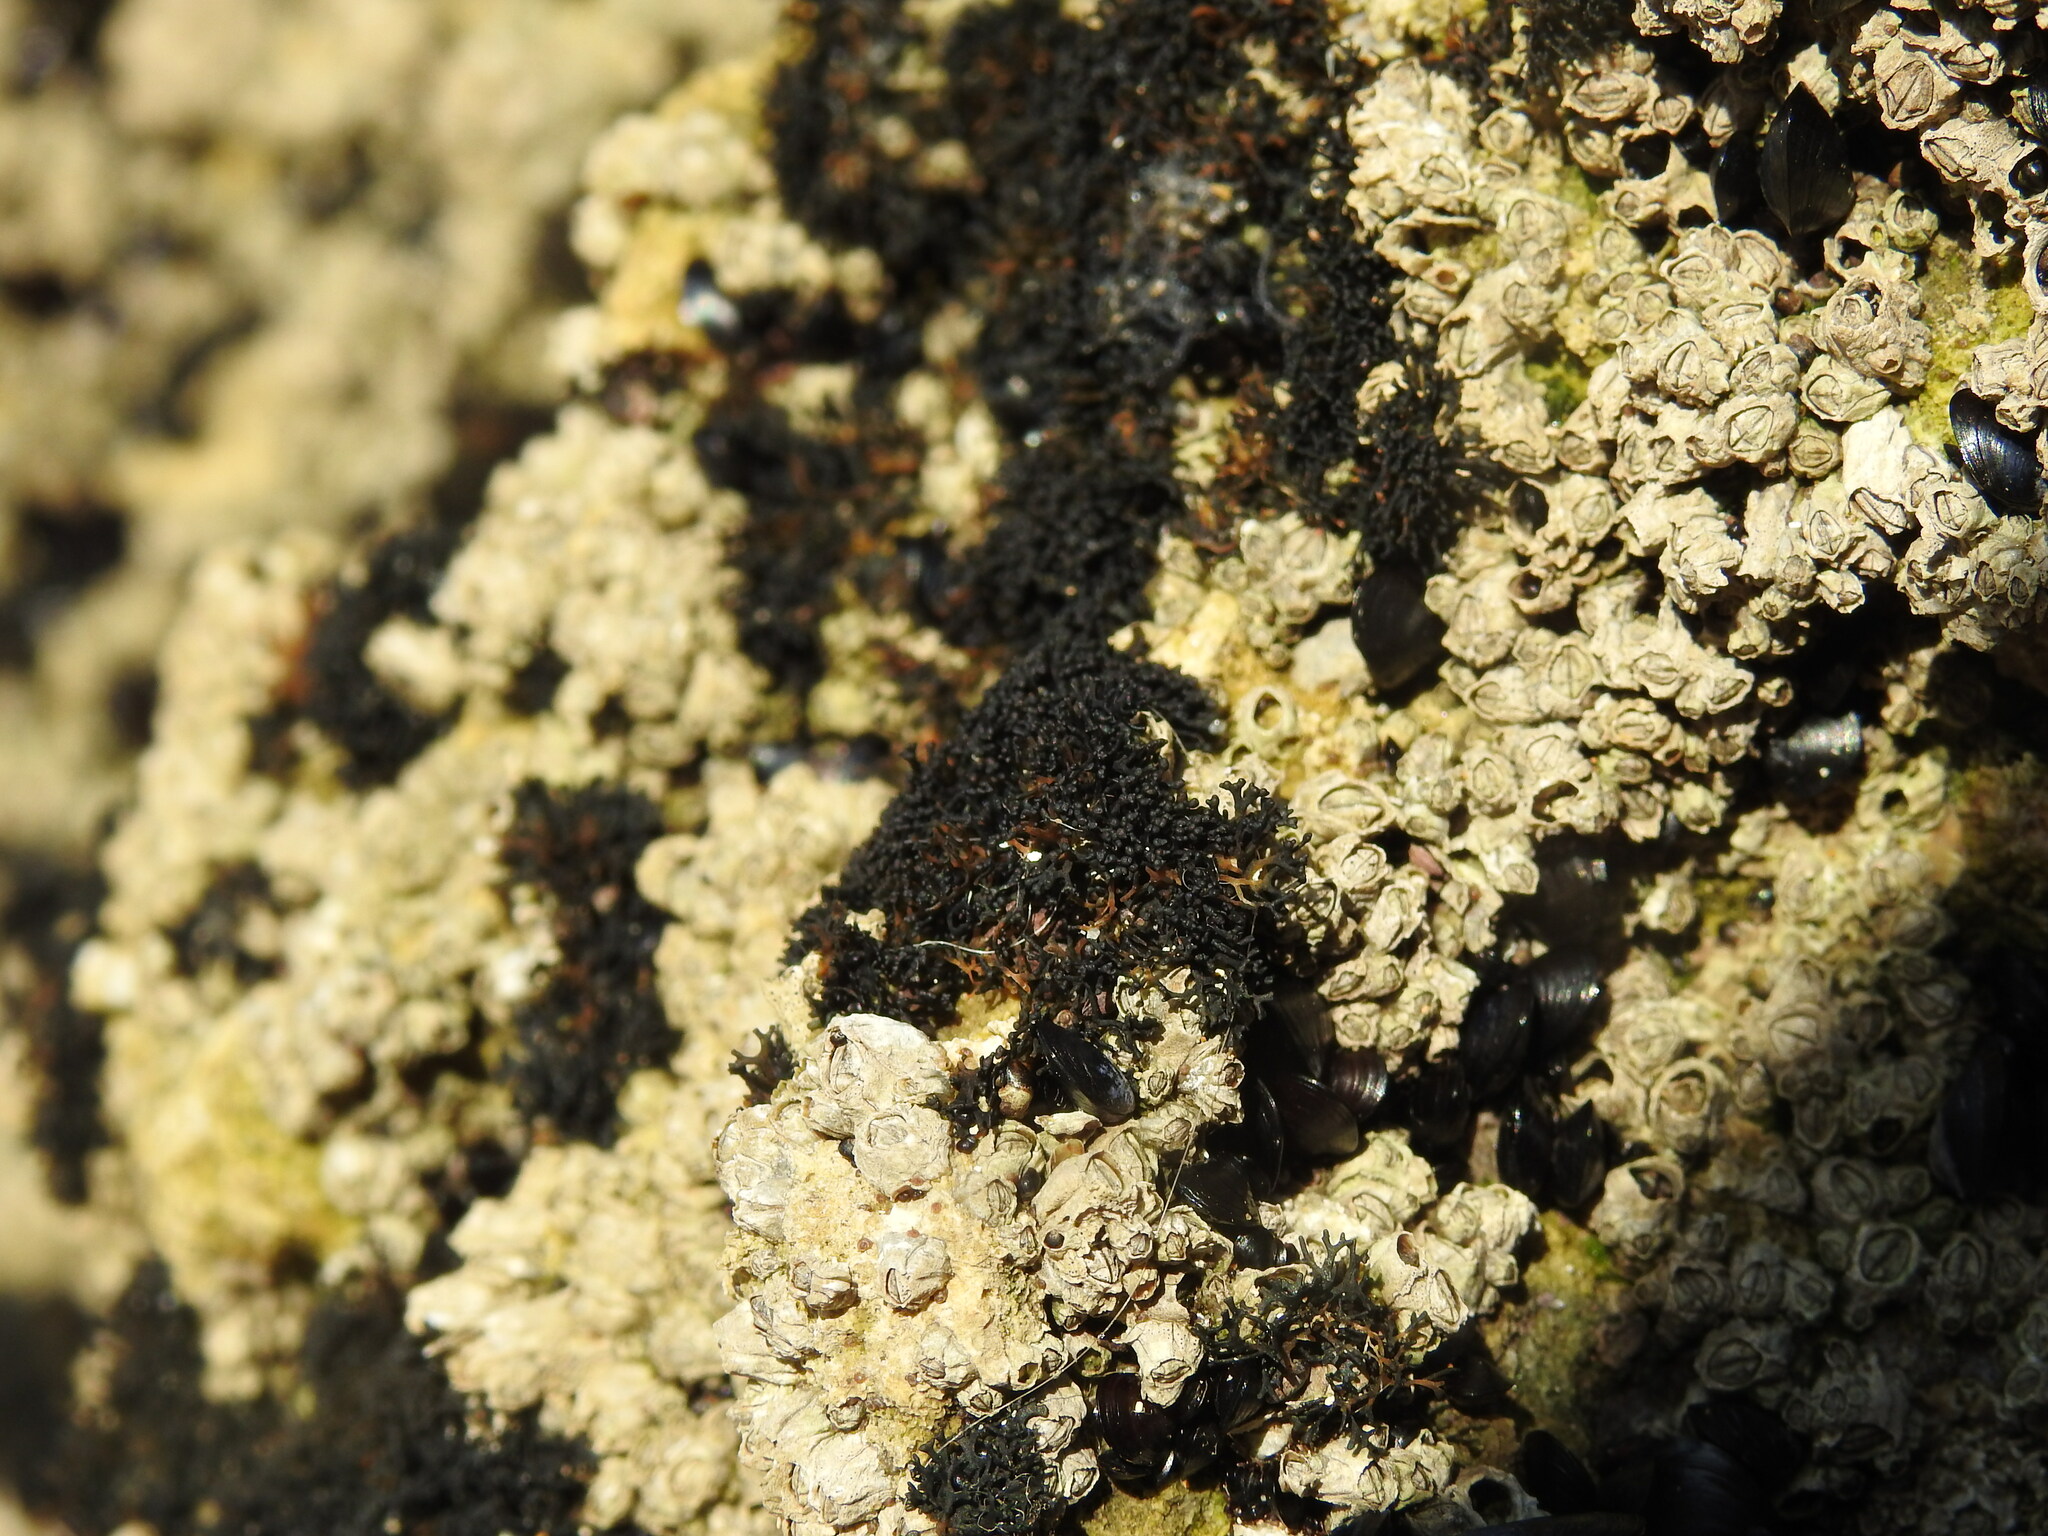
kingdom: Fungi
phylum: Ascomycota
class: Lichinomycetes
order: Lichinales
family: Lichinaceae
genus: Lichina
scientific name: Lichina pygmaea
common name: Black lichen
